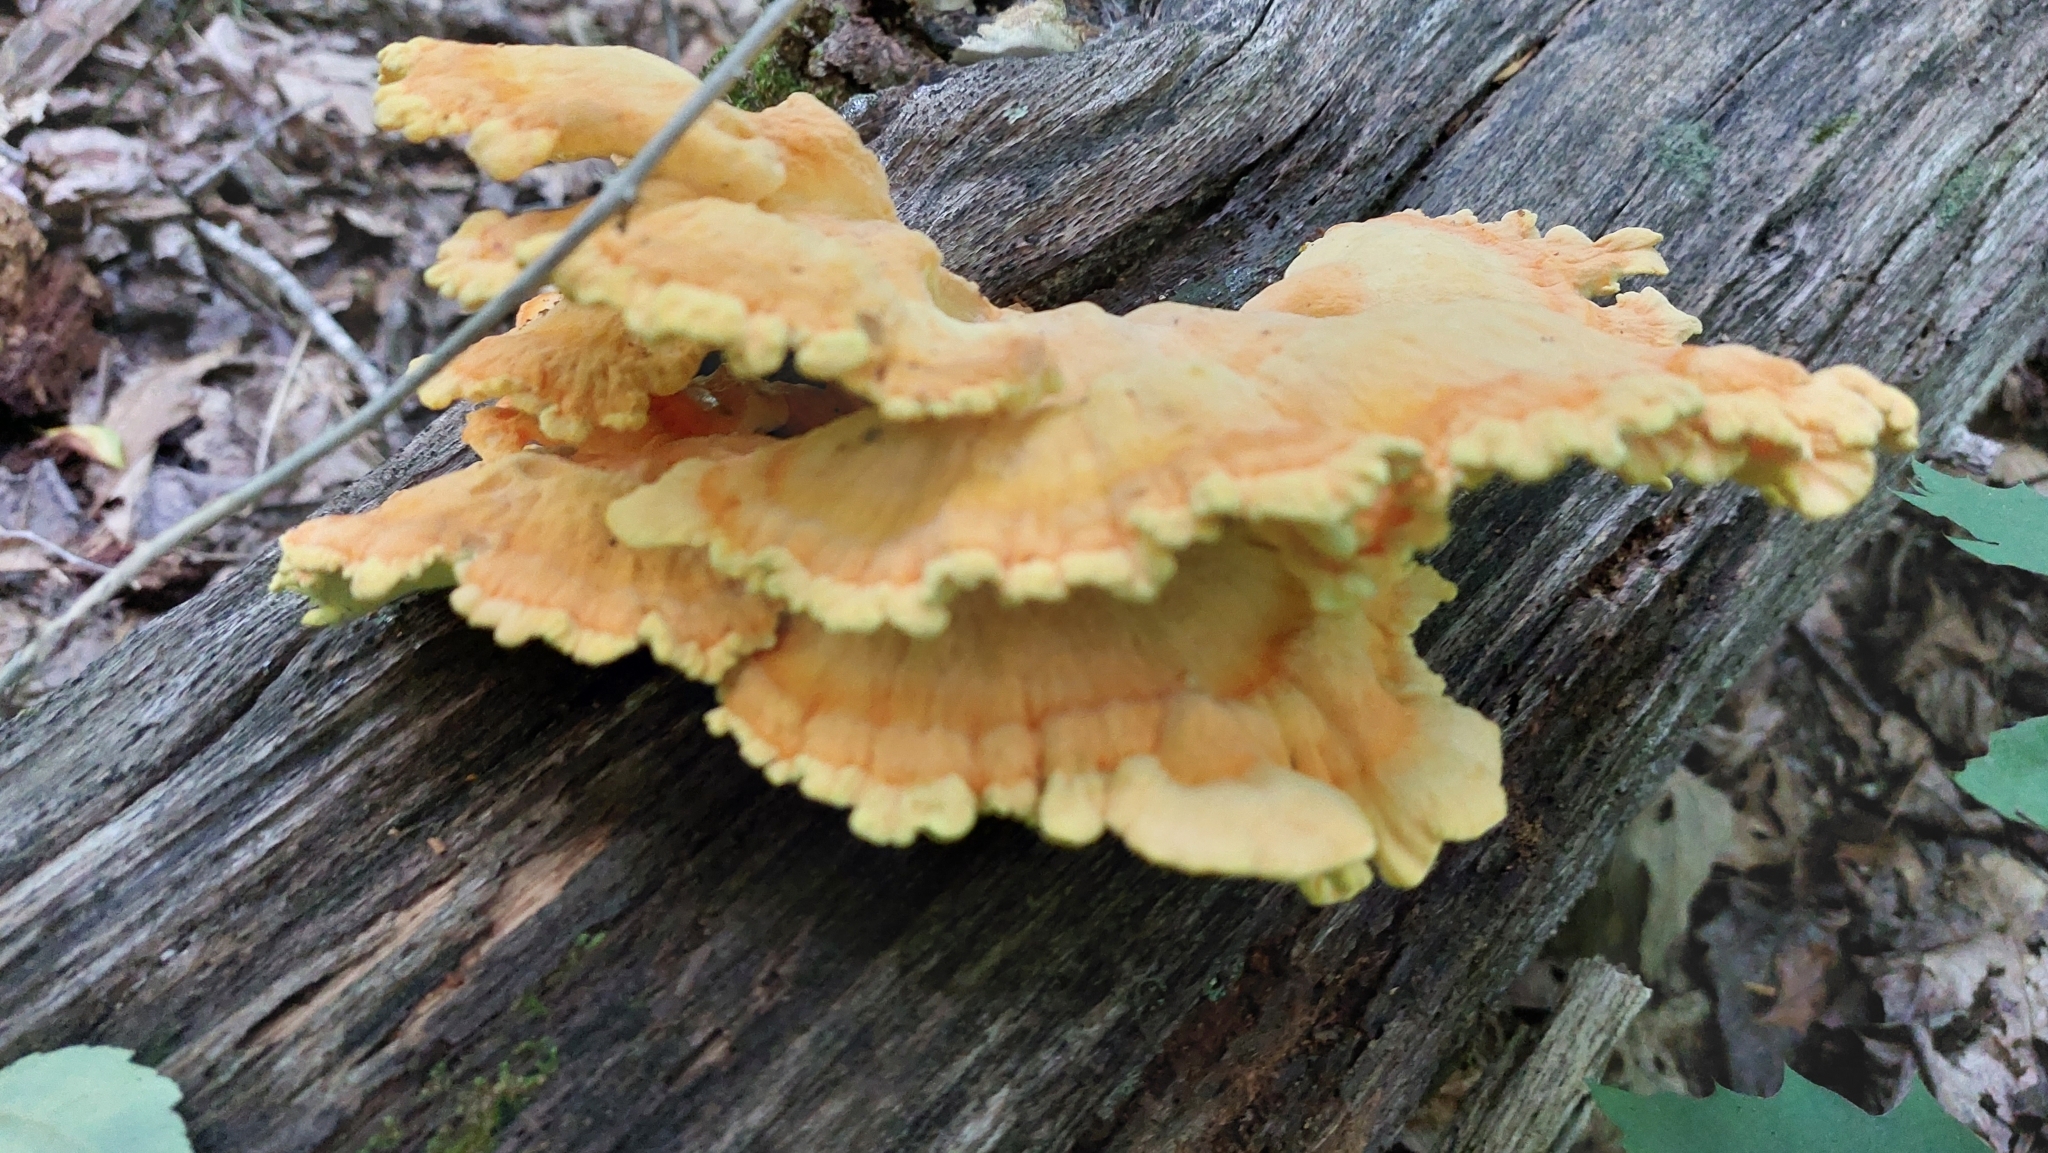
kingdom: Fungi
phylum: Basidiomycota
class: Agaricomycetes
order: Polyporales
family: Laetiporaceae
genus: Laetiporus
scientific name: Laetiporus sulphureus
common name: Chicken of the woods
